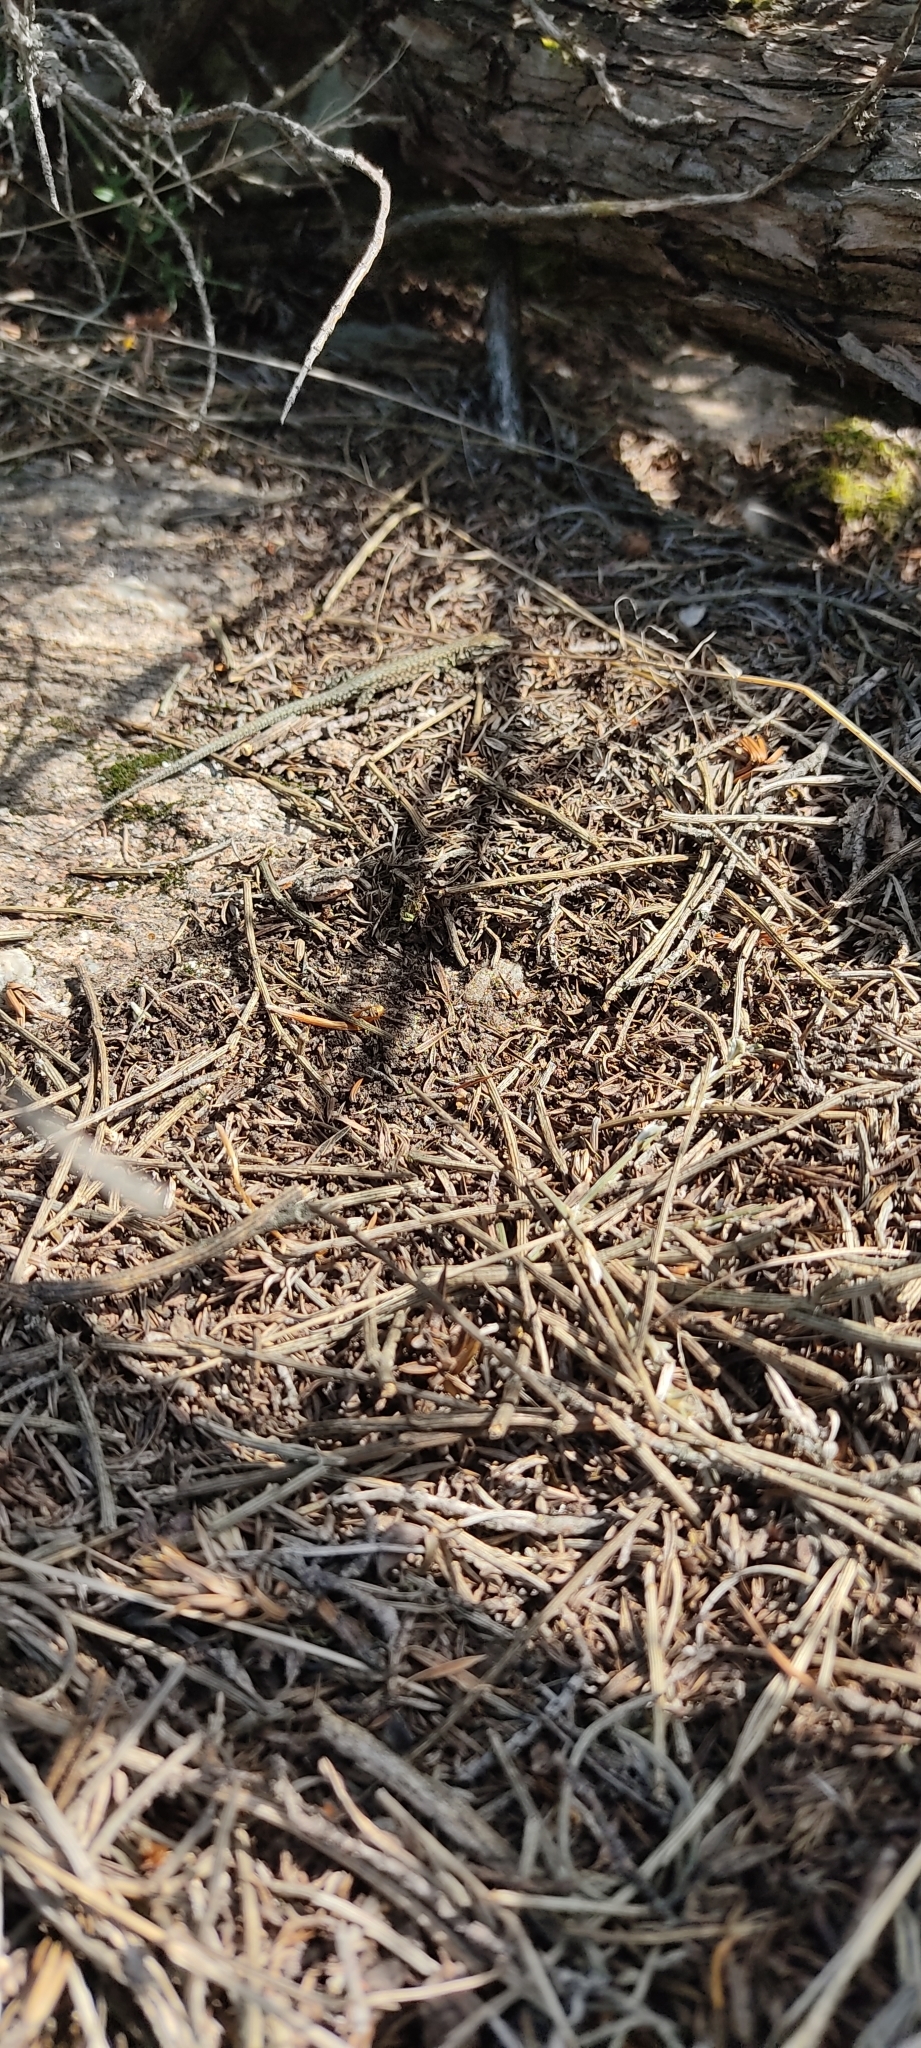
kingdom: Animalia
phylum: Chordata
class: Squamata
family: Lacertidae
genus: Podarcis
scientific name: Podarcis liolepis
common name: Catalonian wall lizard
